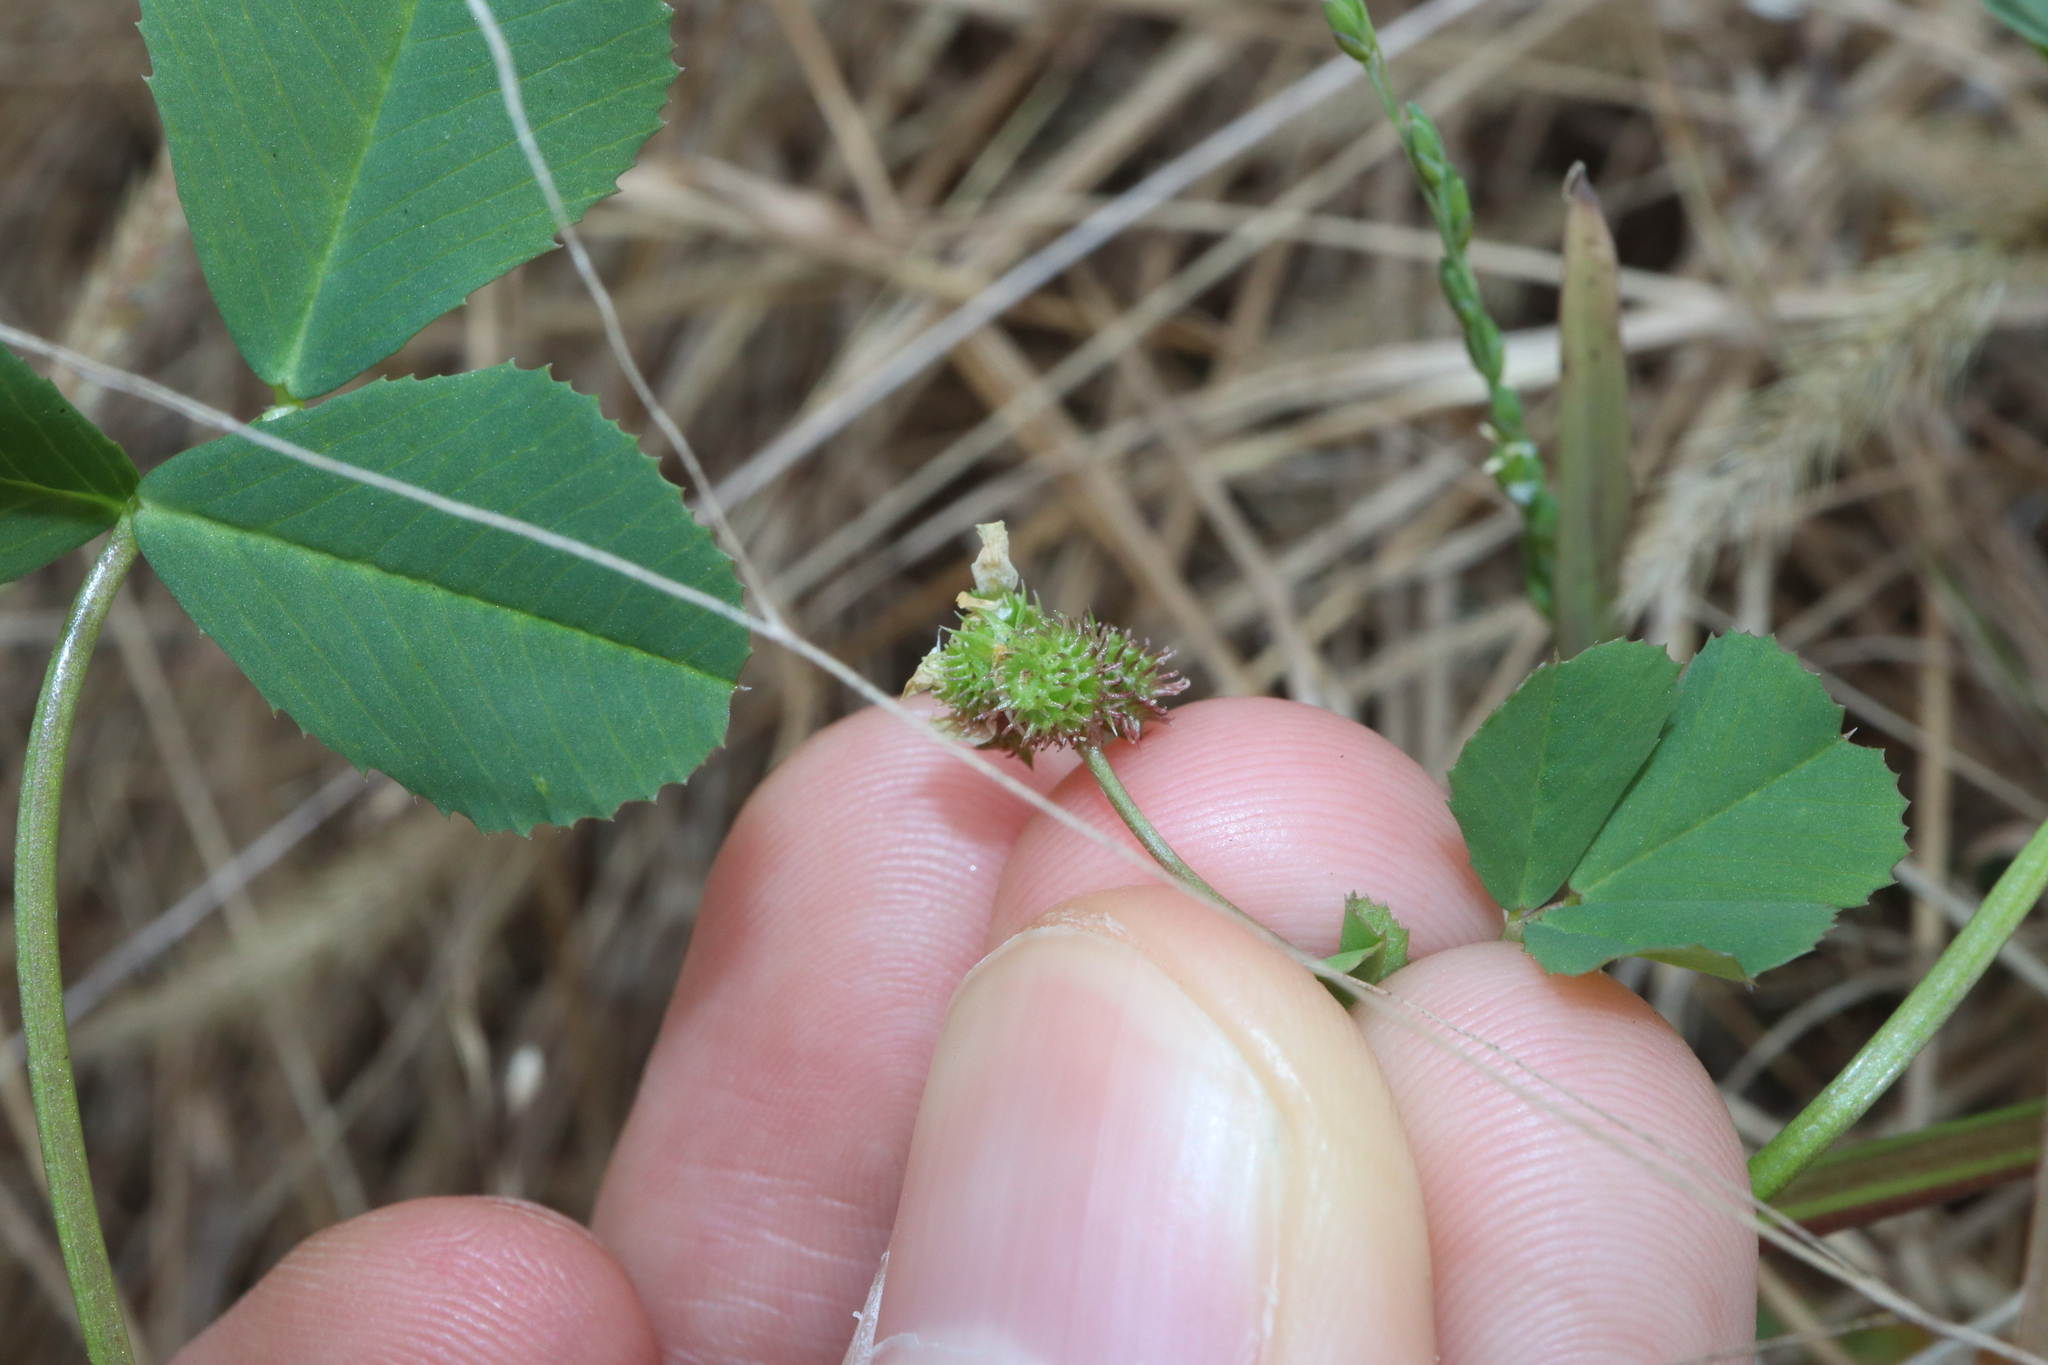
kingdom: Plantae
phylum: Tracheophyta
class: Magnoliopsida
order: Fabales
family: Fabaceae
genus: Medicago
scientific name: Medicago polymorpha
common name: Burclover
